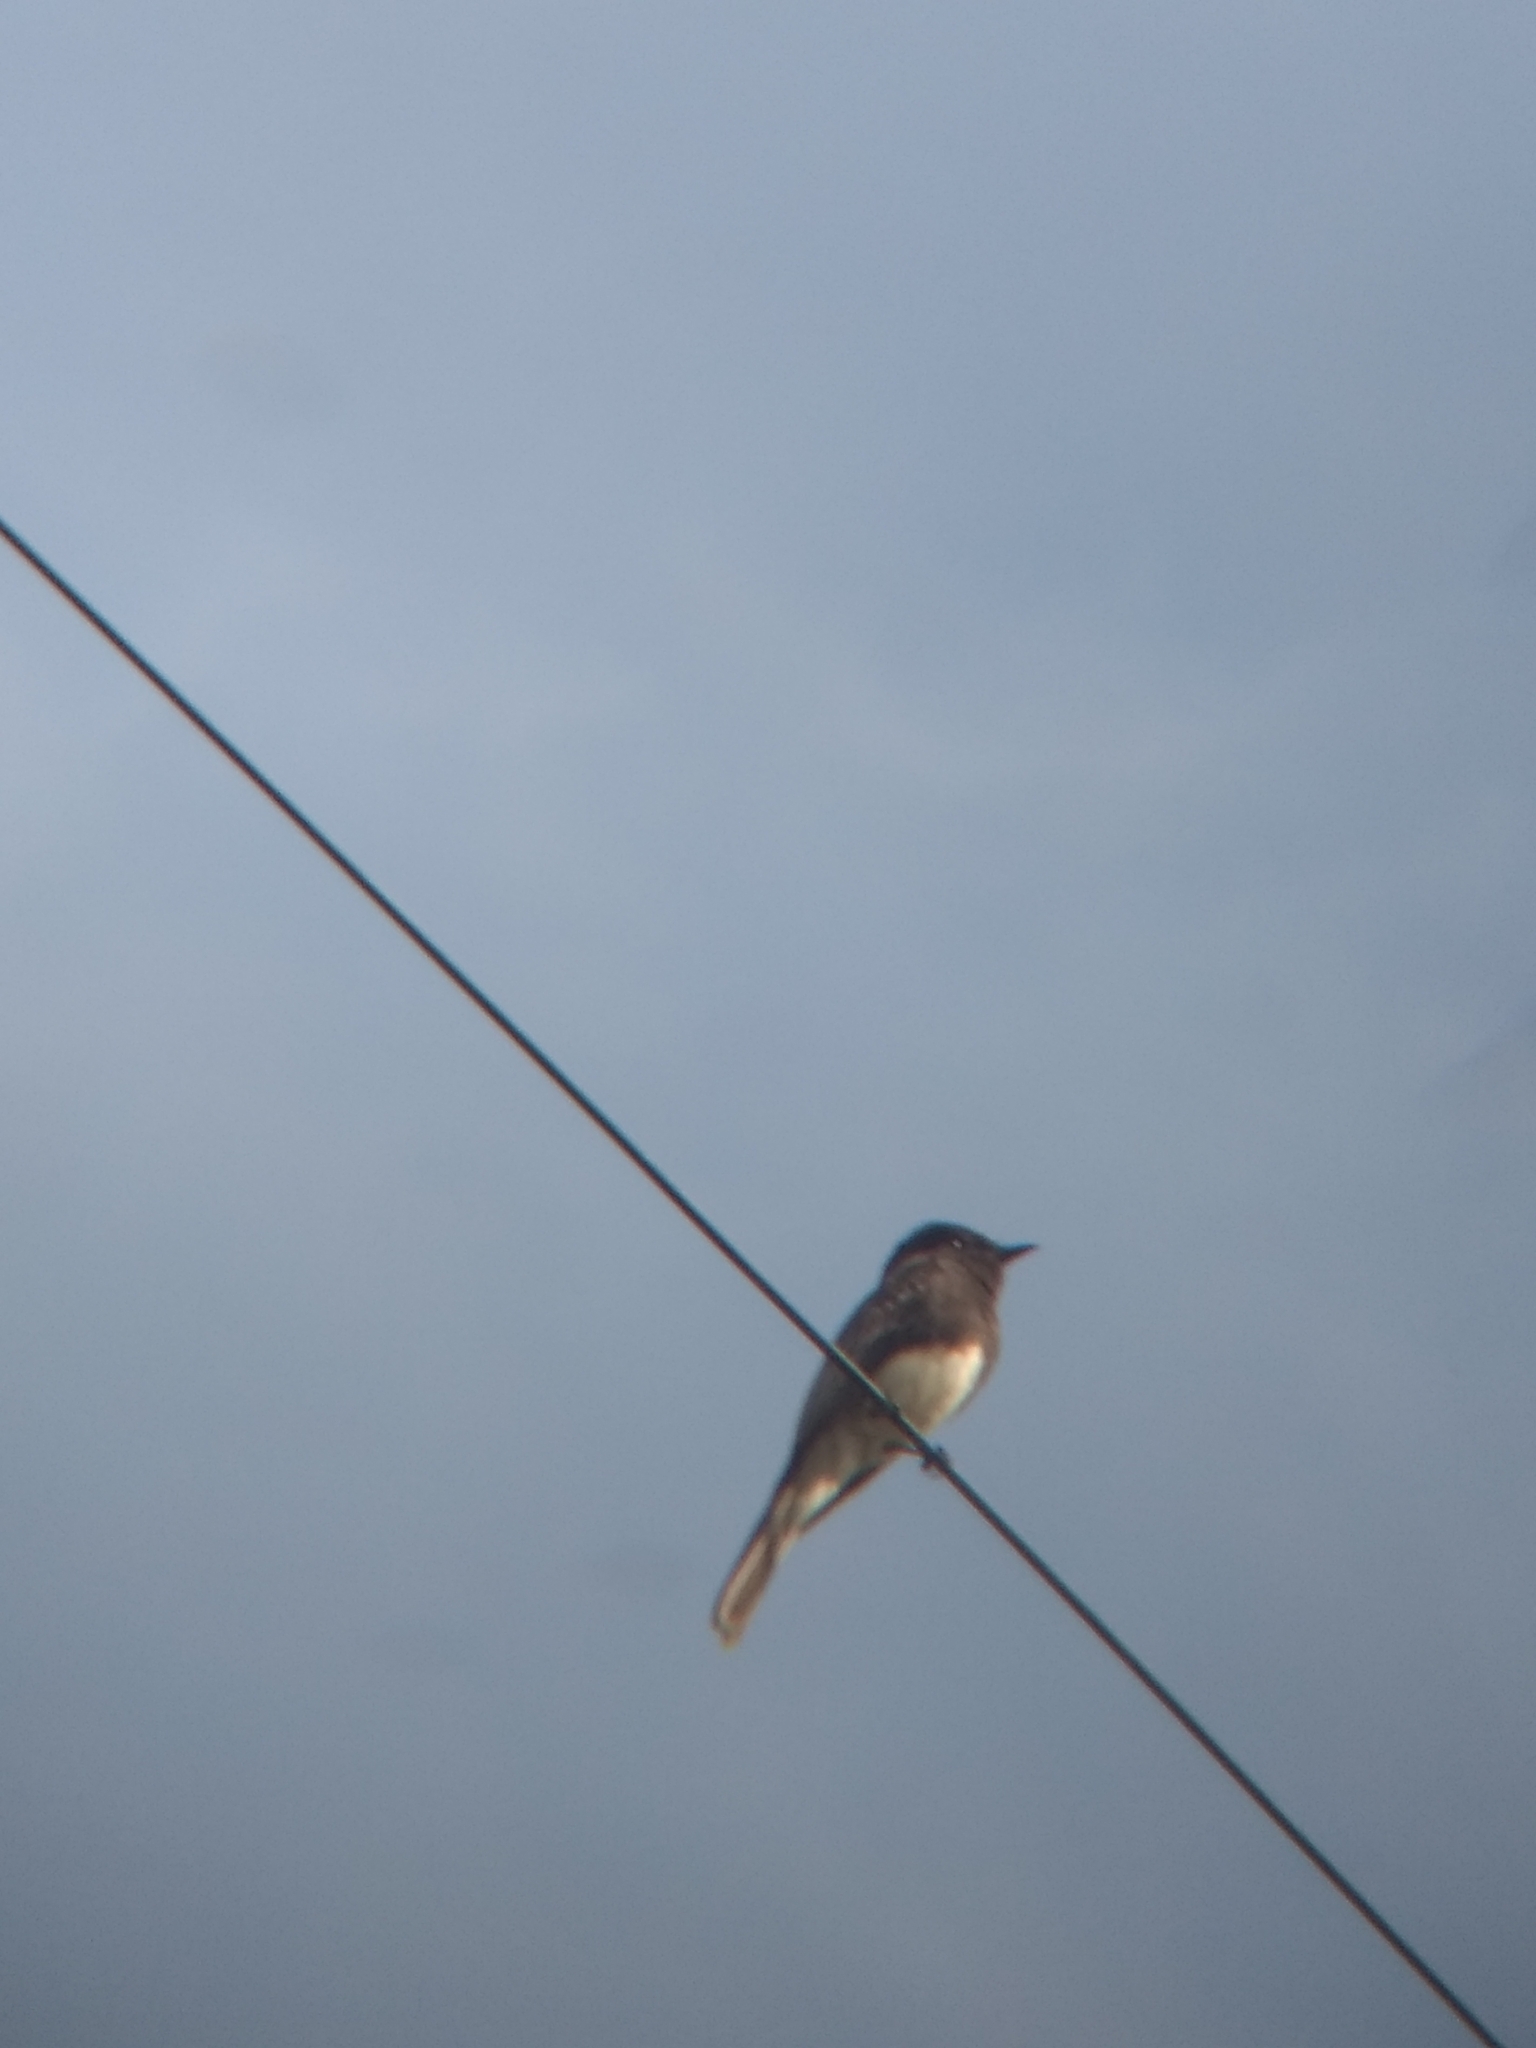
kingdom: Animalia
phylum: Chordata
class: Aves
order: Passeriformes
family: Tyrannidae
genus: Sayornis
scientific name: Sayornis nigricans
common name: Black phoebe
